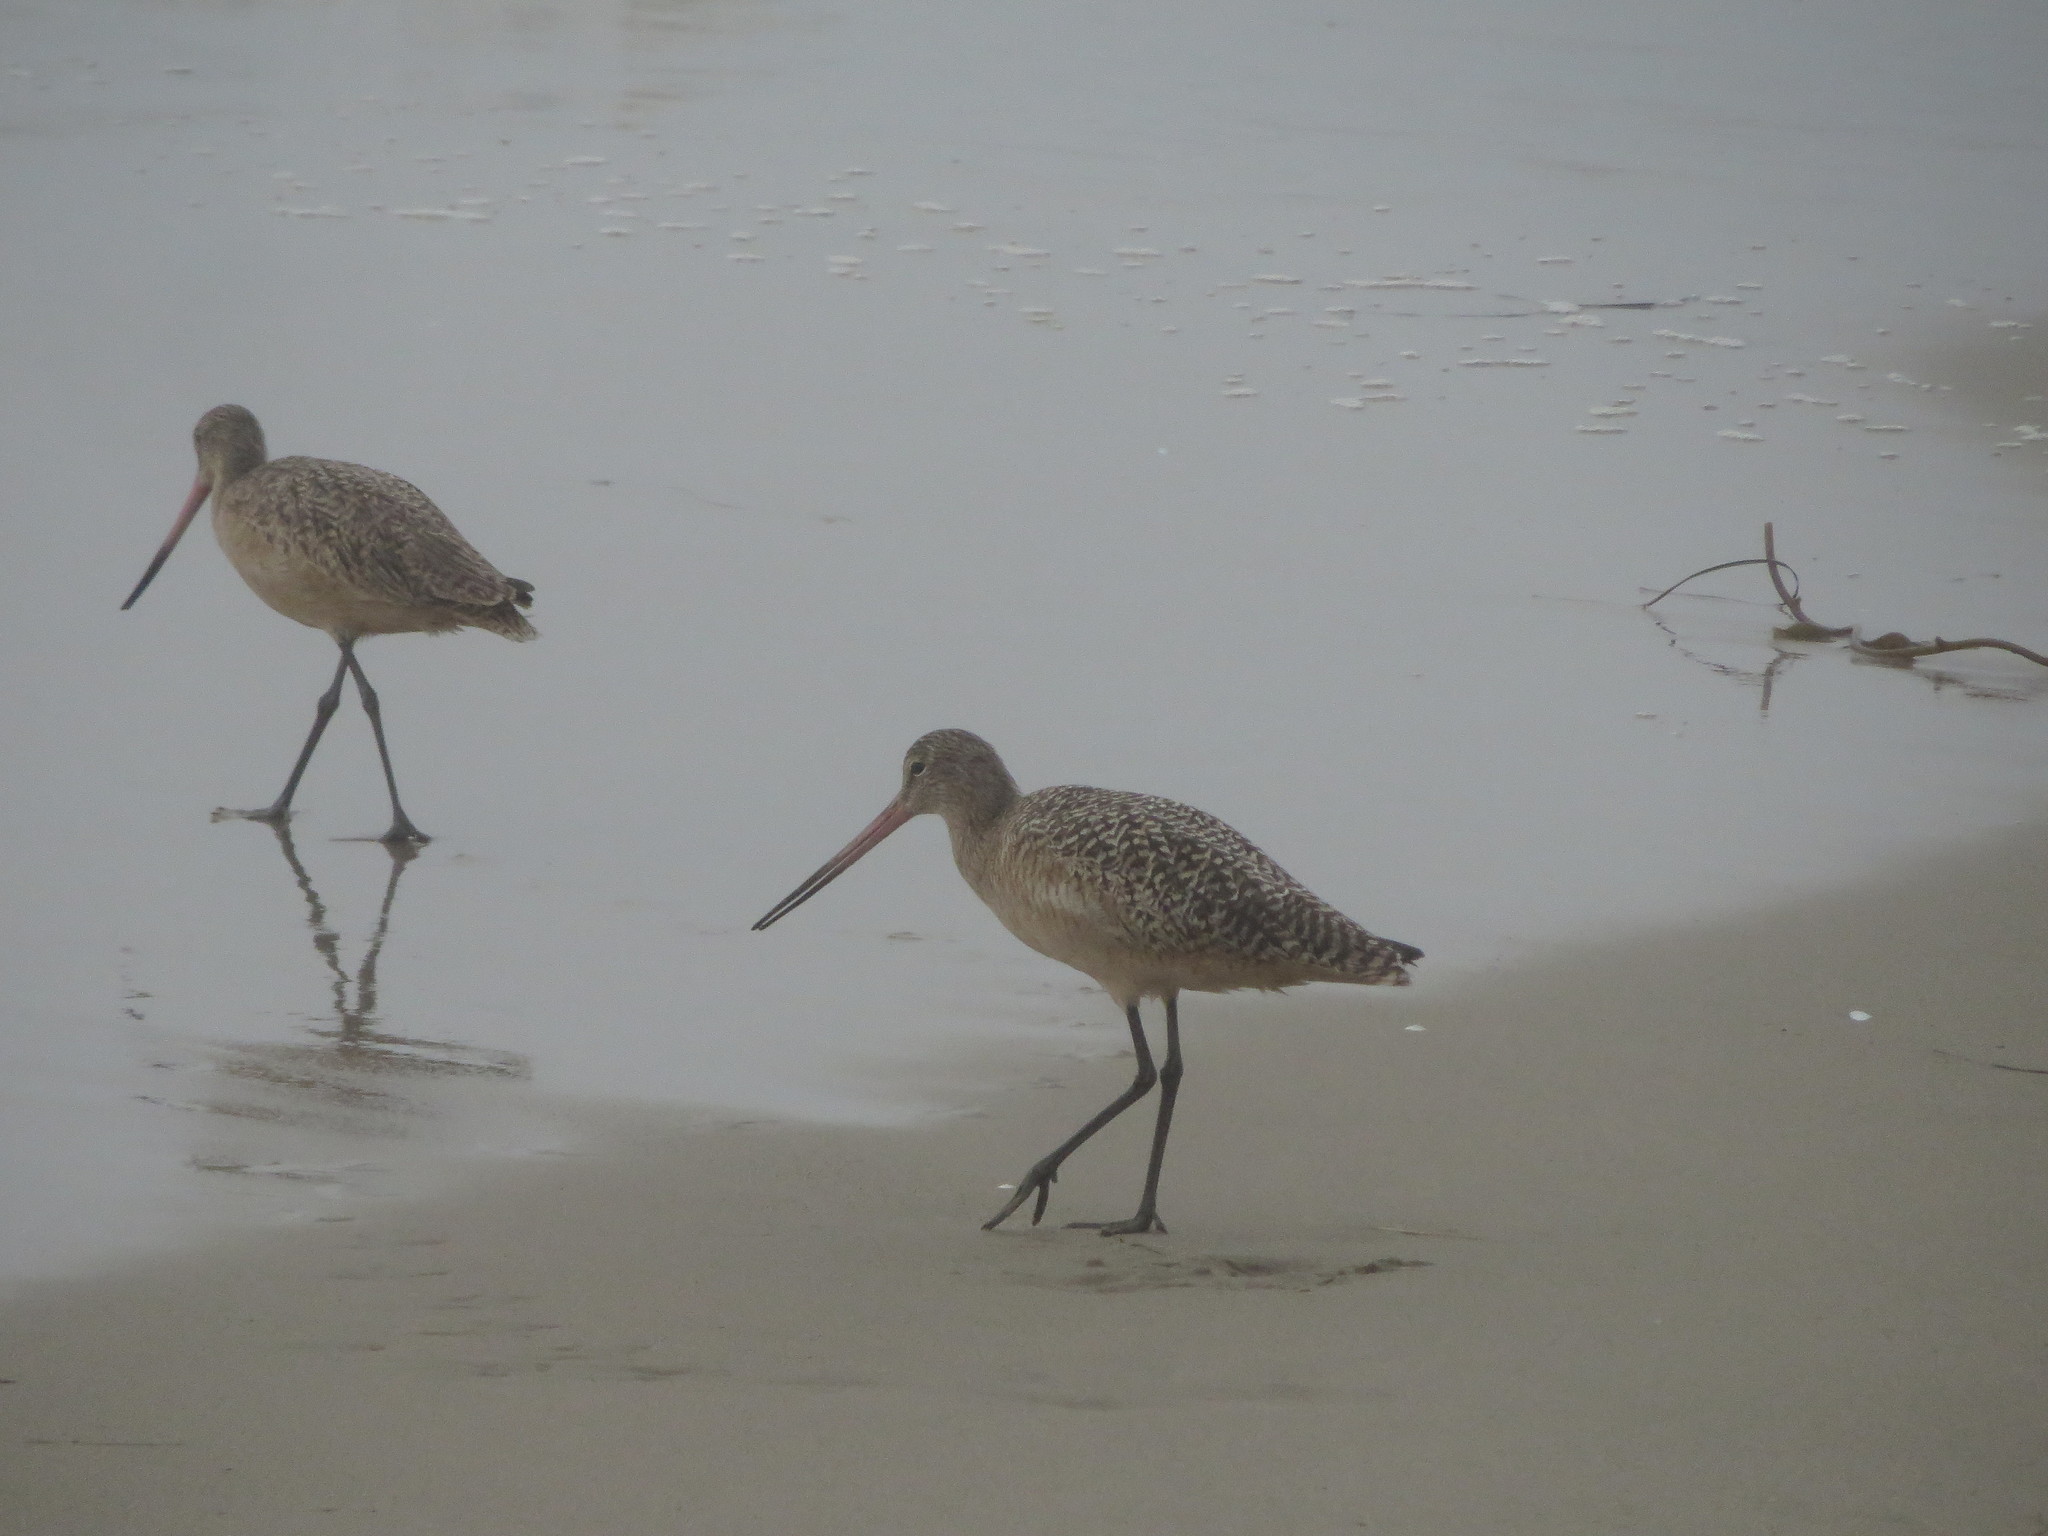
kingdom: Animalia
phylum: Chordata
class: Aves
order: Charadriiformes
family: Scolopacidae
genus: Limosa
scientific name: Limosa fedoa
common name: Marbled godwit
